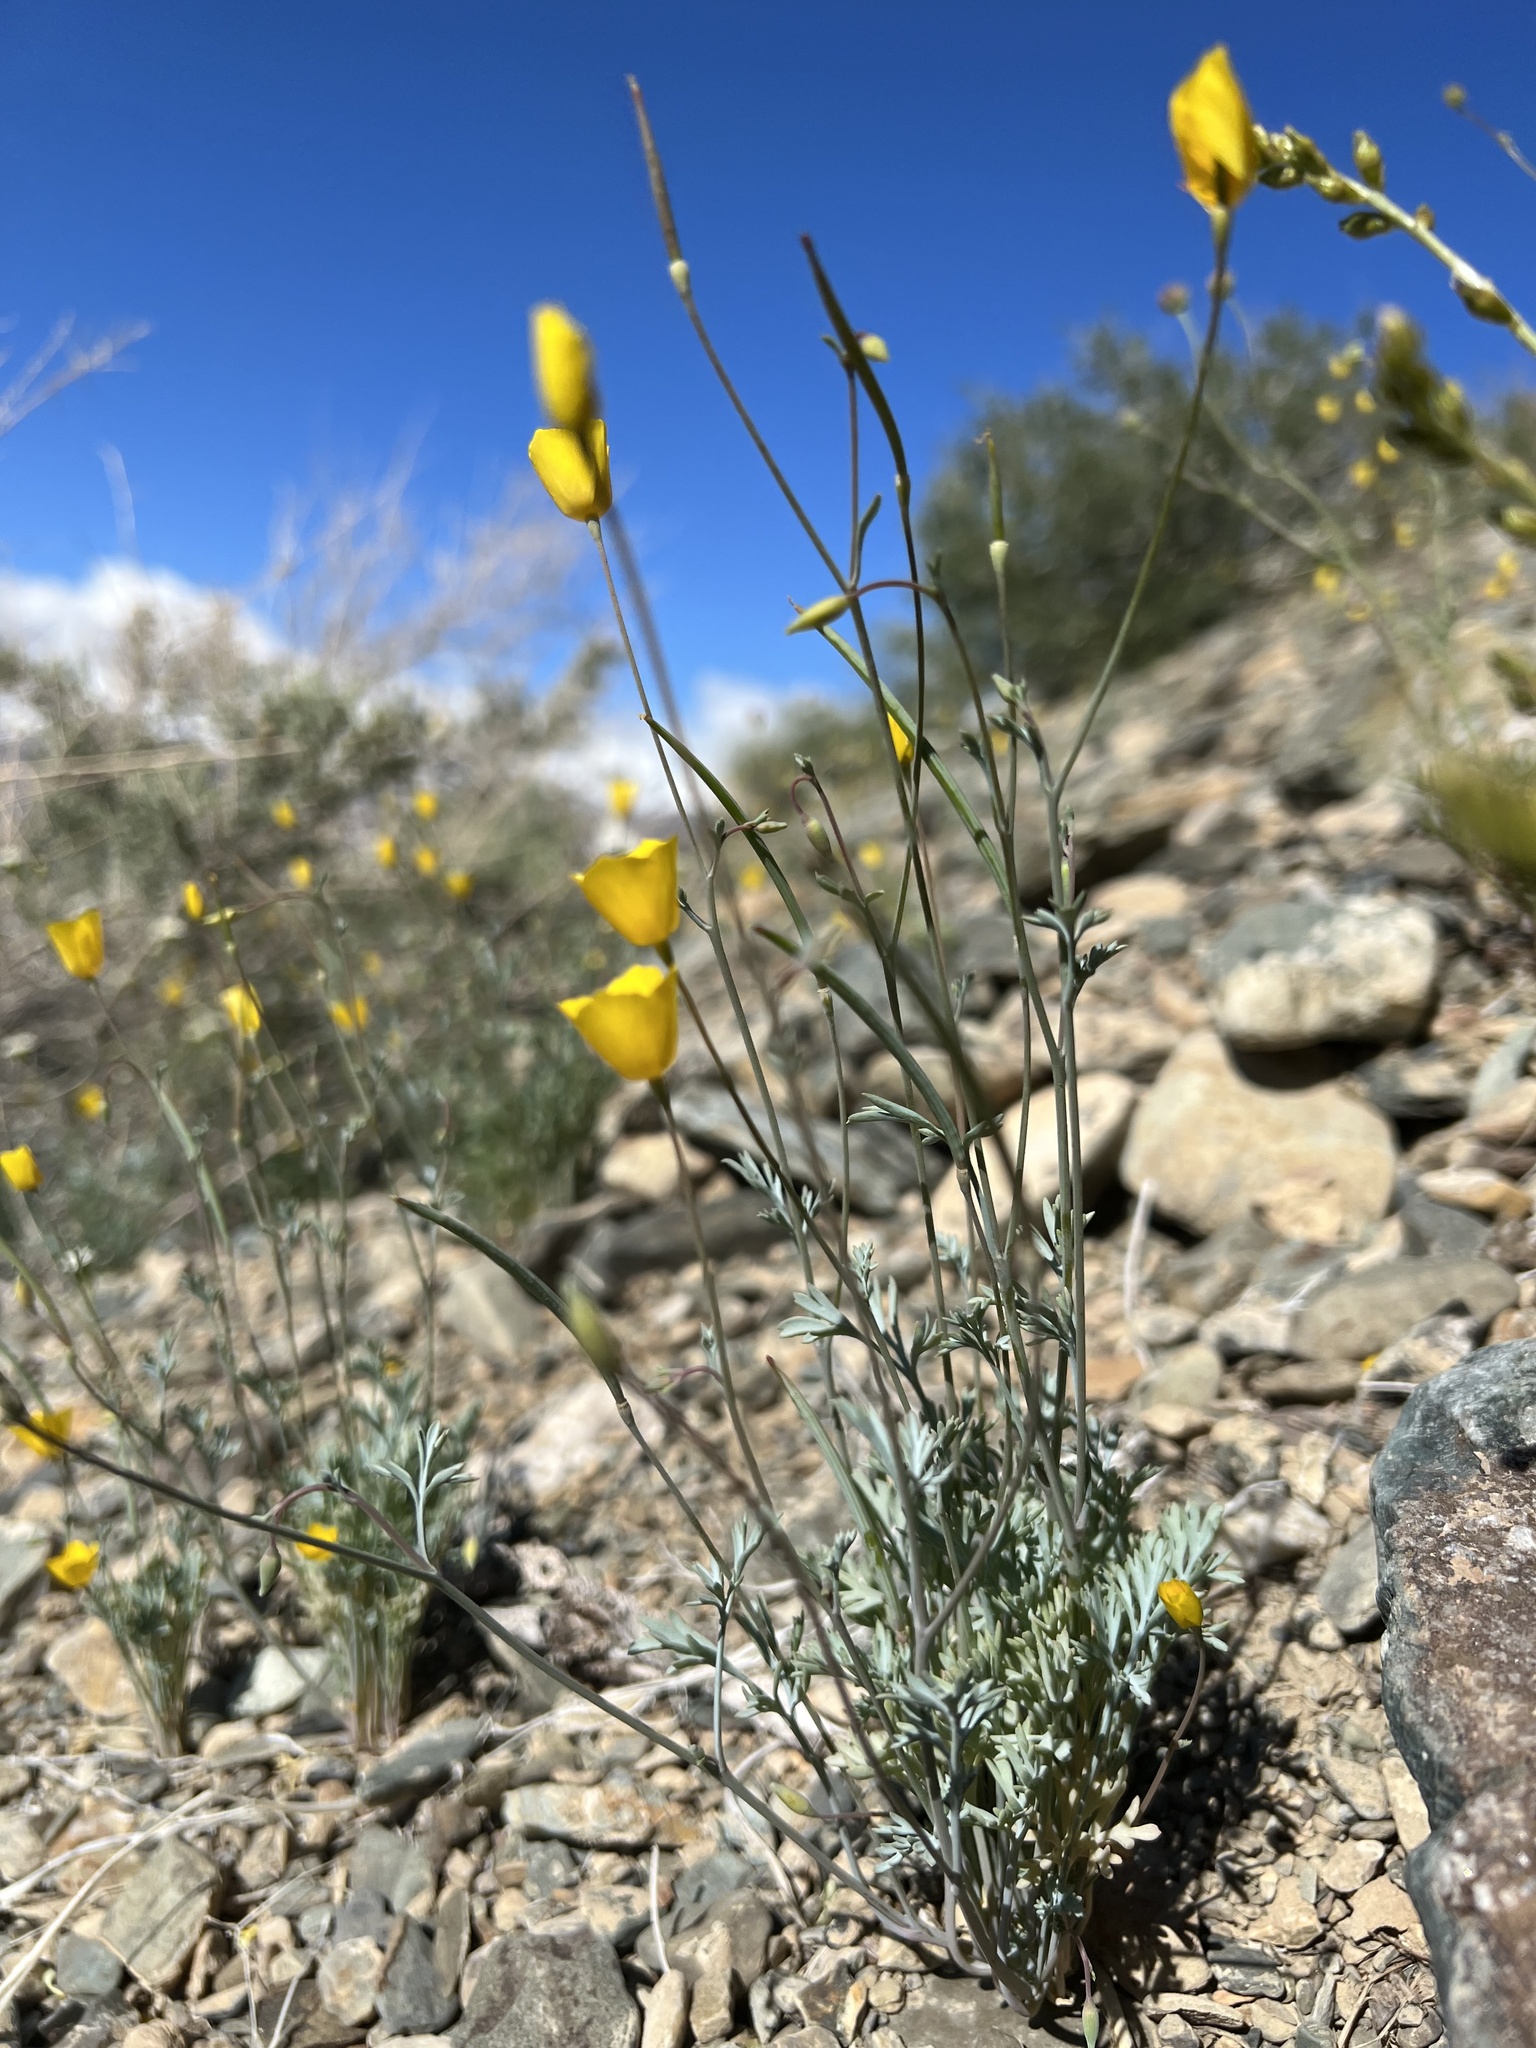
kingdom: Plantae
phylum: Tracheophyta
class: Magnoliopsida
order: Ranunculales
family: Papaveraceae
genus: Eschscholzia
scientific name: Eschscholzia minutiflora
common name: Small-flower california-poppy
